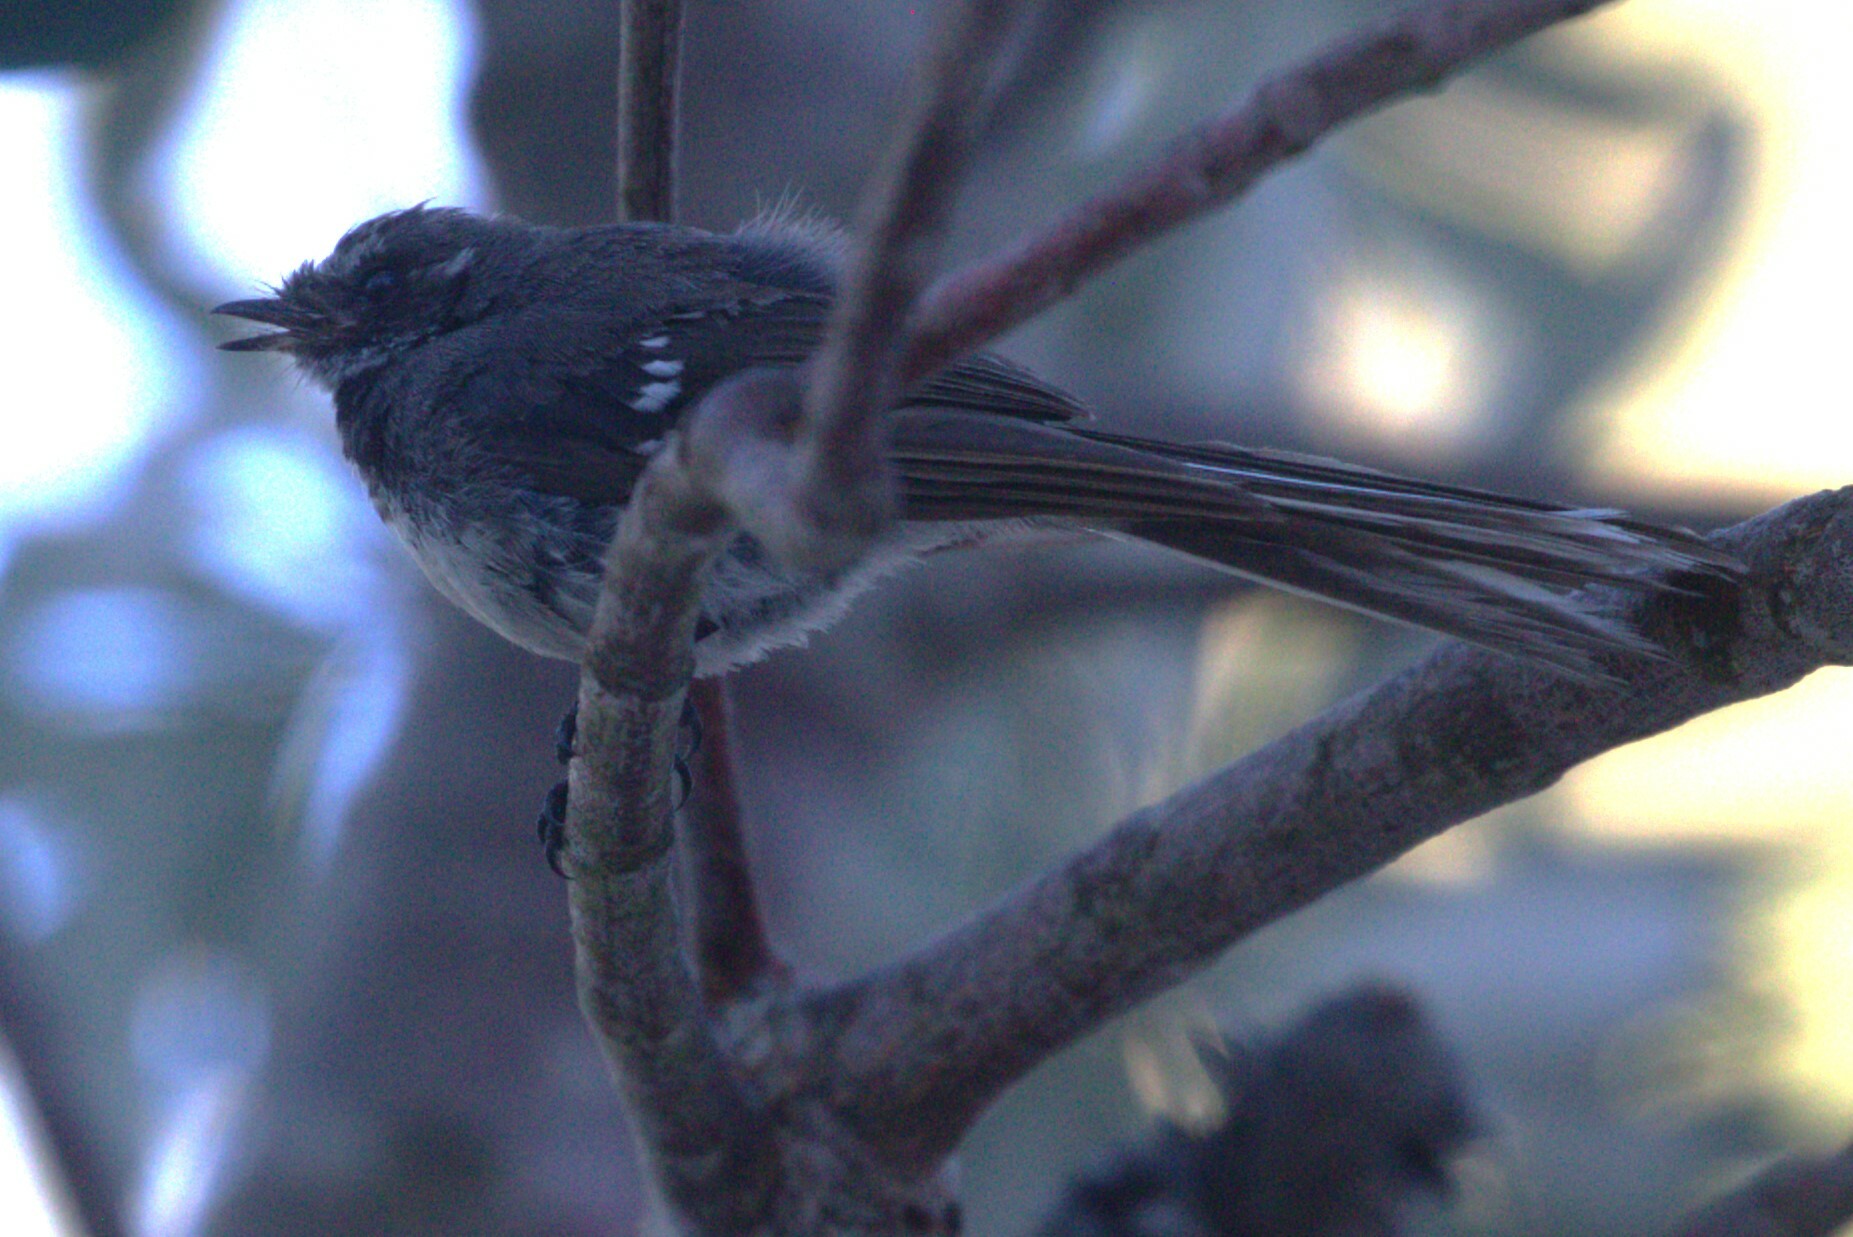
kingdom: Animalia
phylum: Chordata
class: Aves
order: Passeriformes
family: Rhipiduridae
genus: Rhipidura
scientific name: Rhipidura albiscapa
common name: Grey fantail
